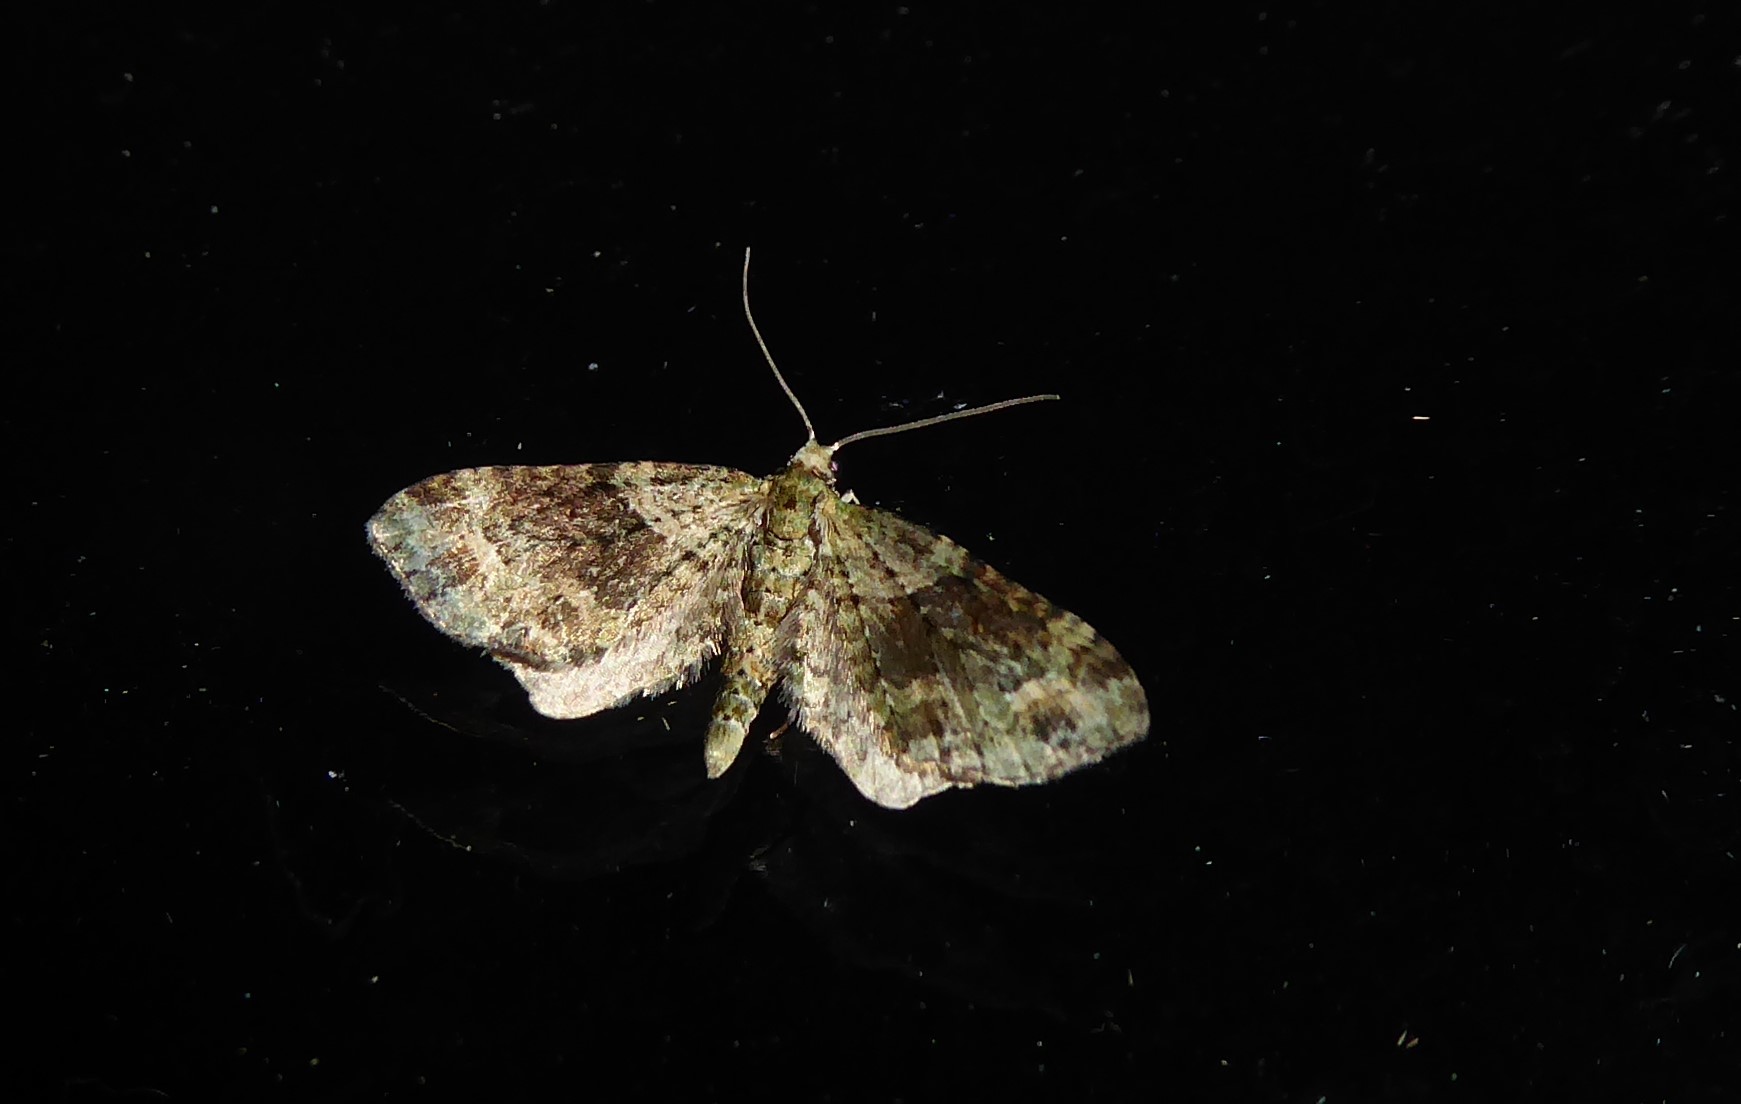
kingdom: Animalia
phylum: Arthropoda
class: Insecta
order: Lepidoptera
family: Geometridae
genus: Idaea
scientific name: Idaea mutanda
